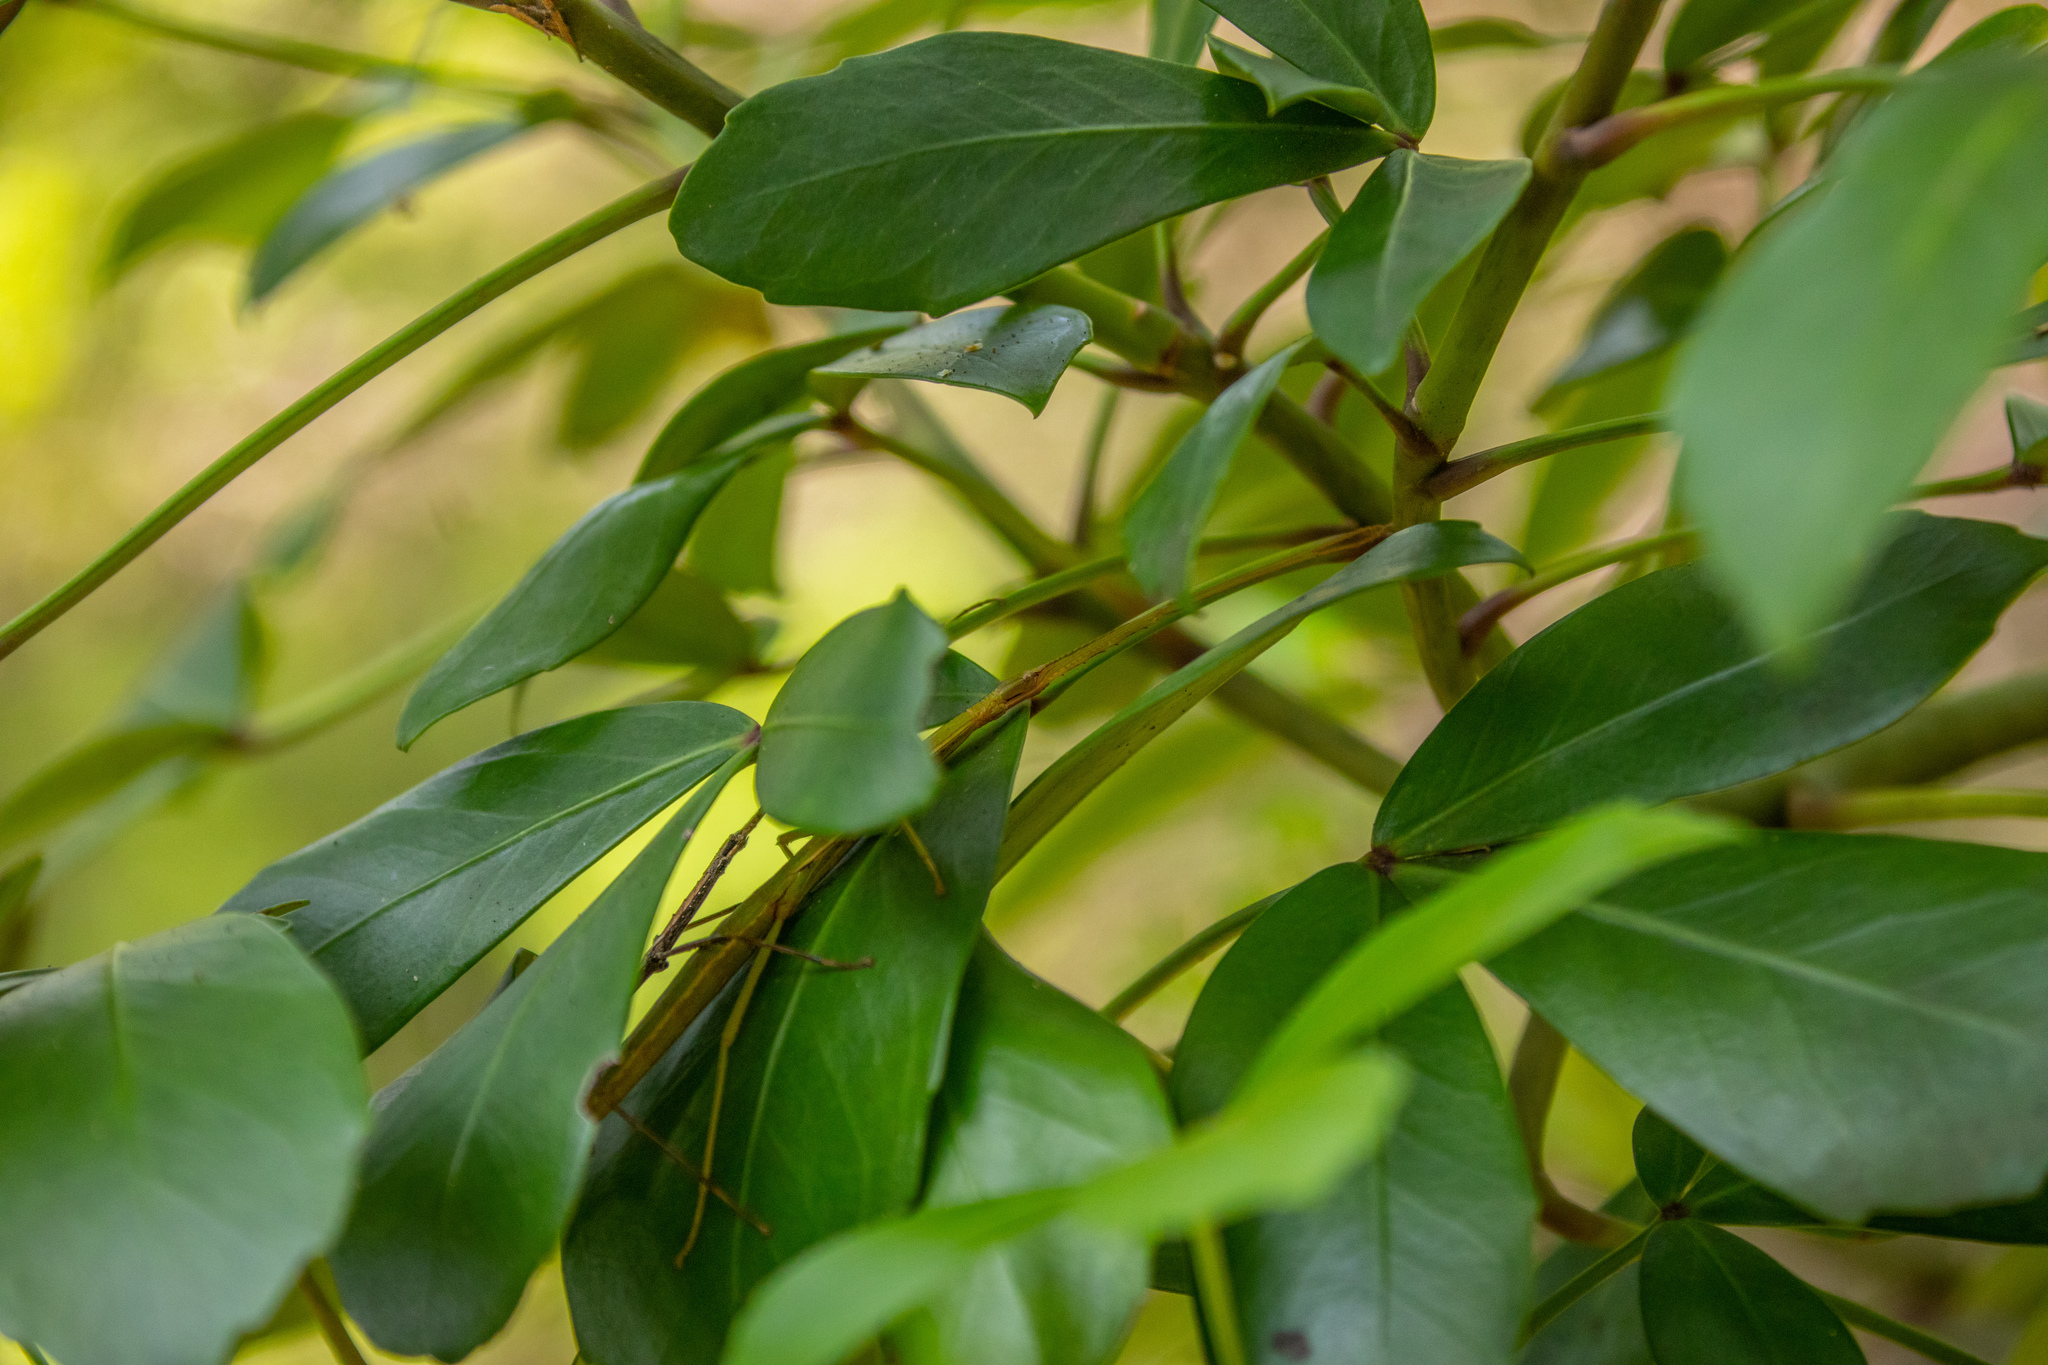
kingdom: Animalia
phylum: Arthropoda
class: Insecta
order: Phasmida
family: Phasmatidae
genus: Clitarchus
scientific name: Clitarchus hookeri
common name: Smooth stick insect
